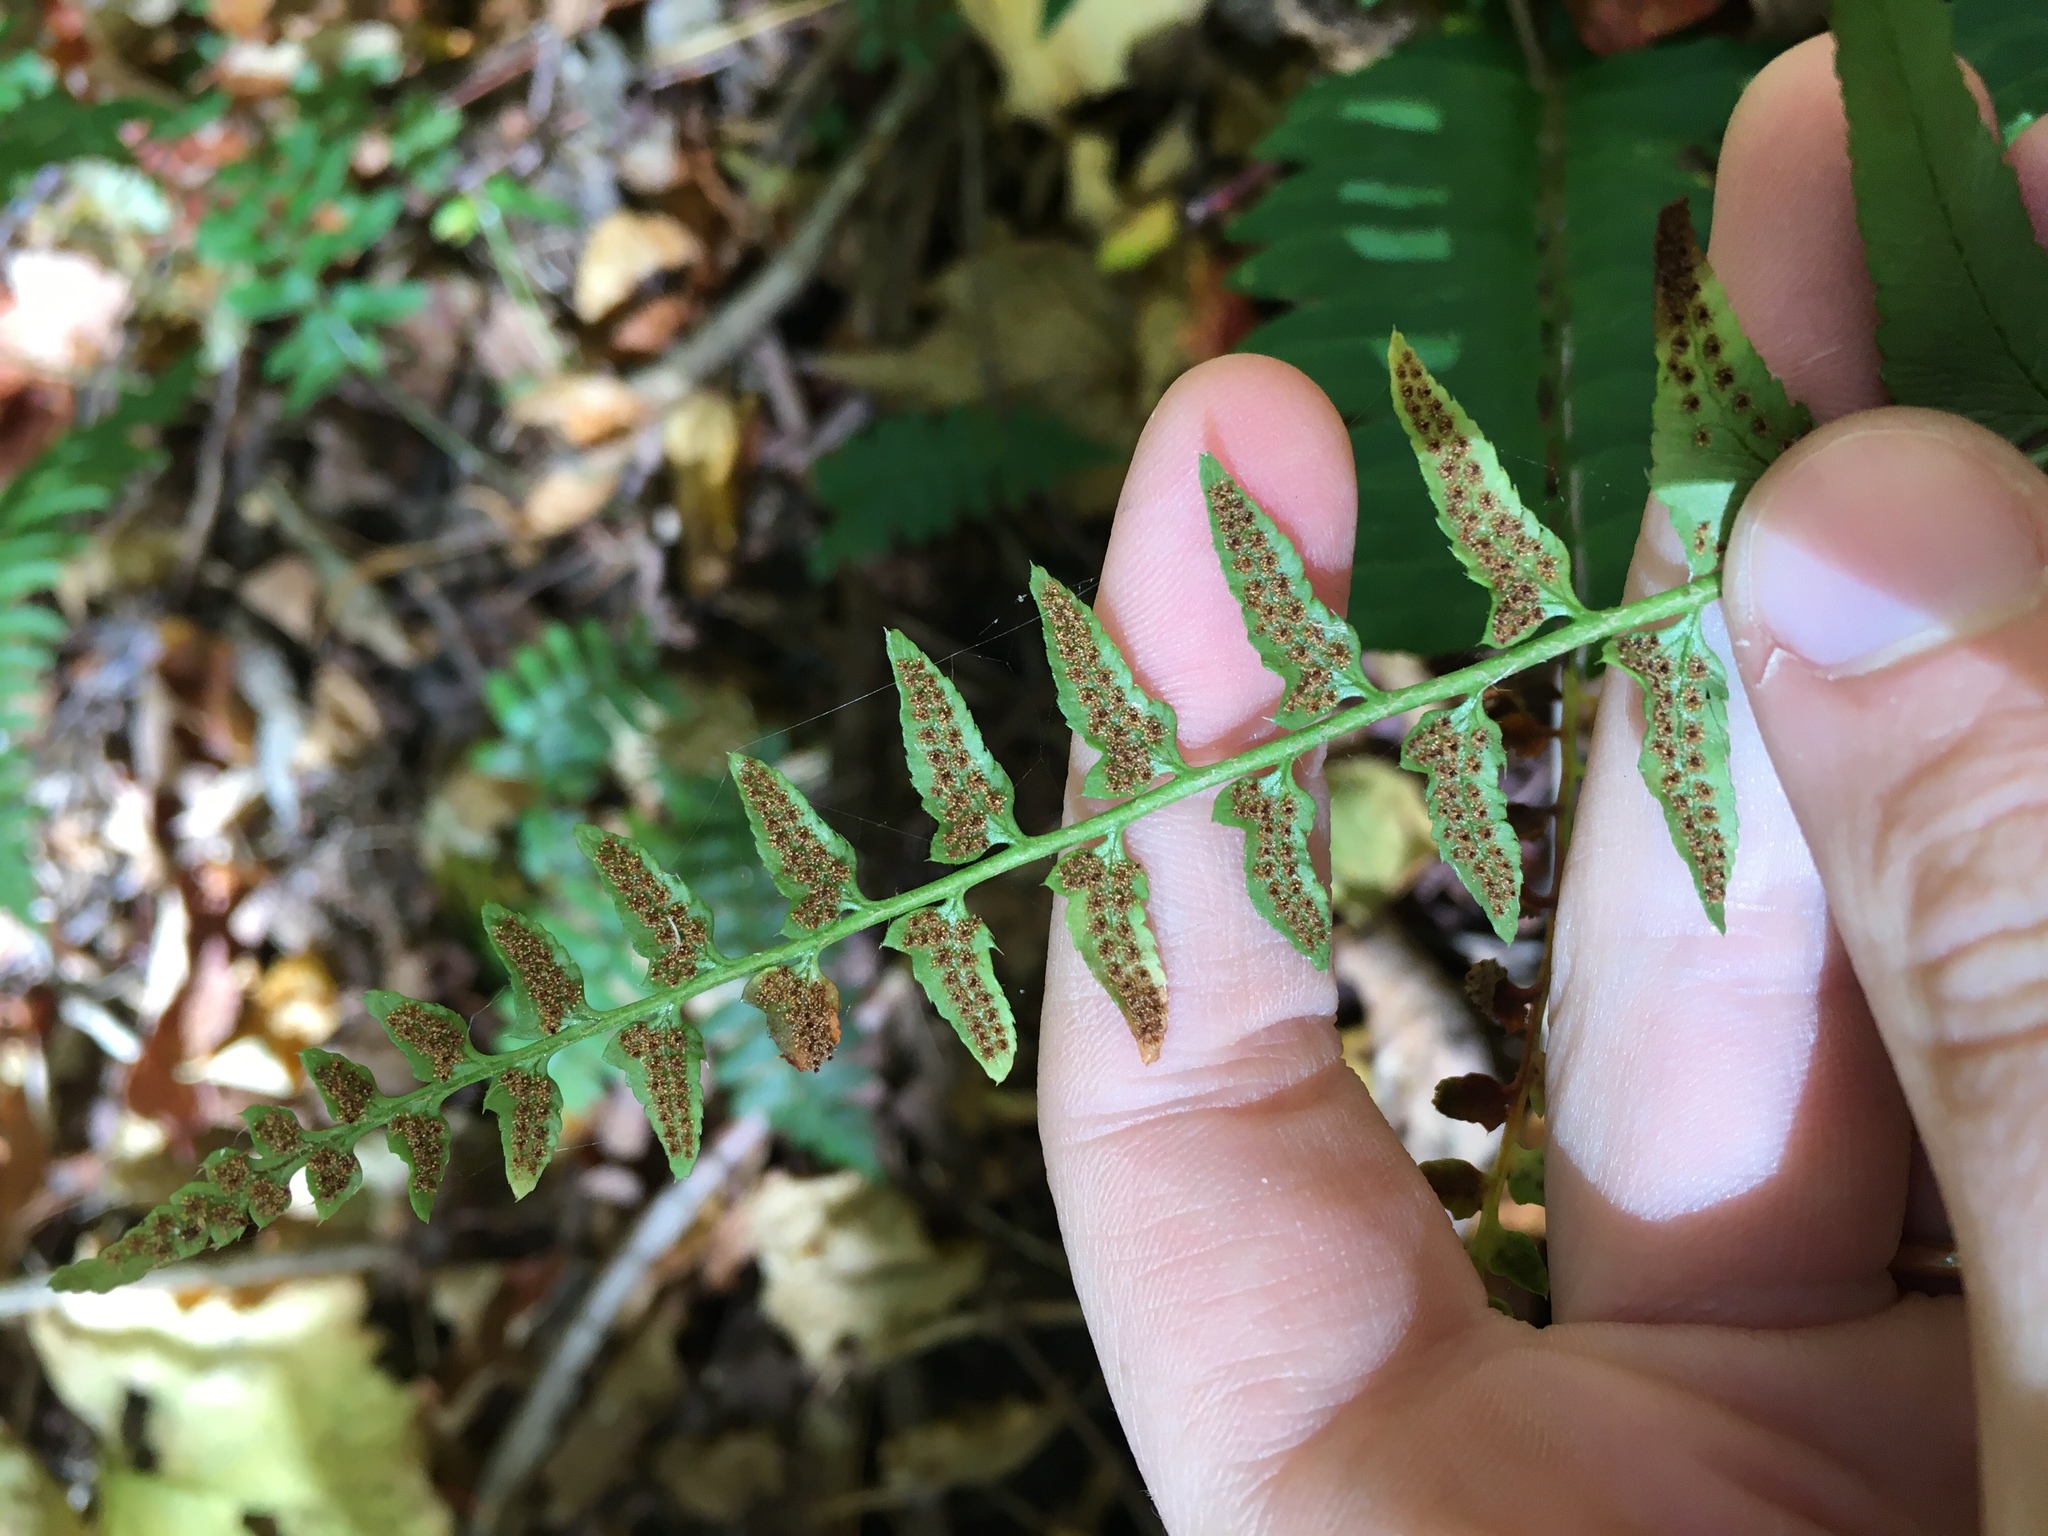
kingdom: Plantae
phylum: Tracheophyta
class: Polypodiopsida
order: Polypodiales
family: Dryopteridaceae
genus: Polystichum
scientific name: Polystichum acrostichoides
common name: Christmas fern
